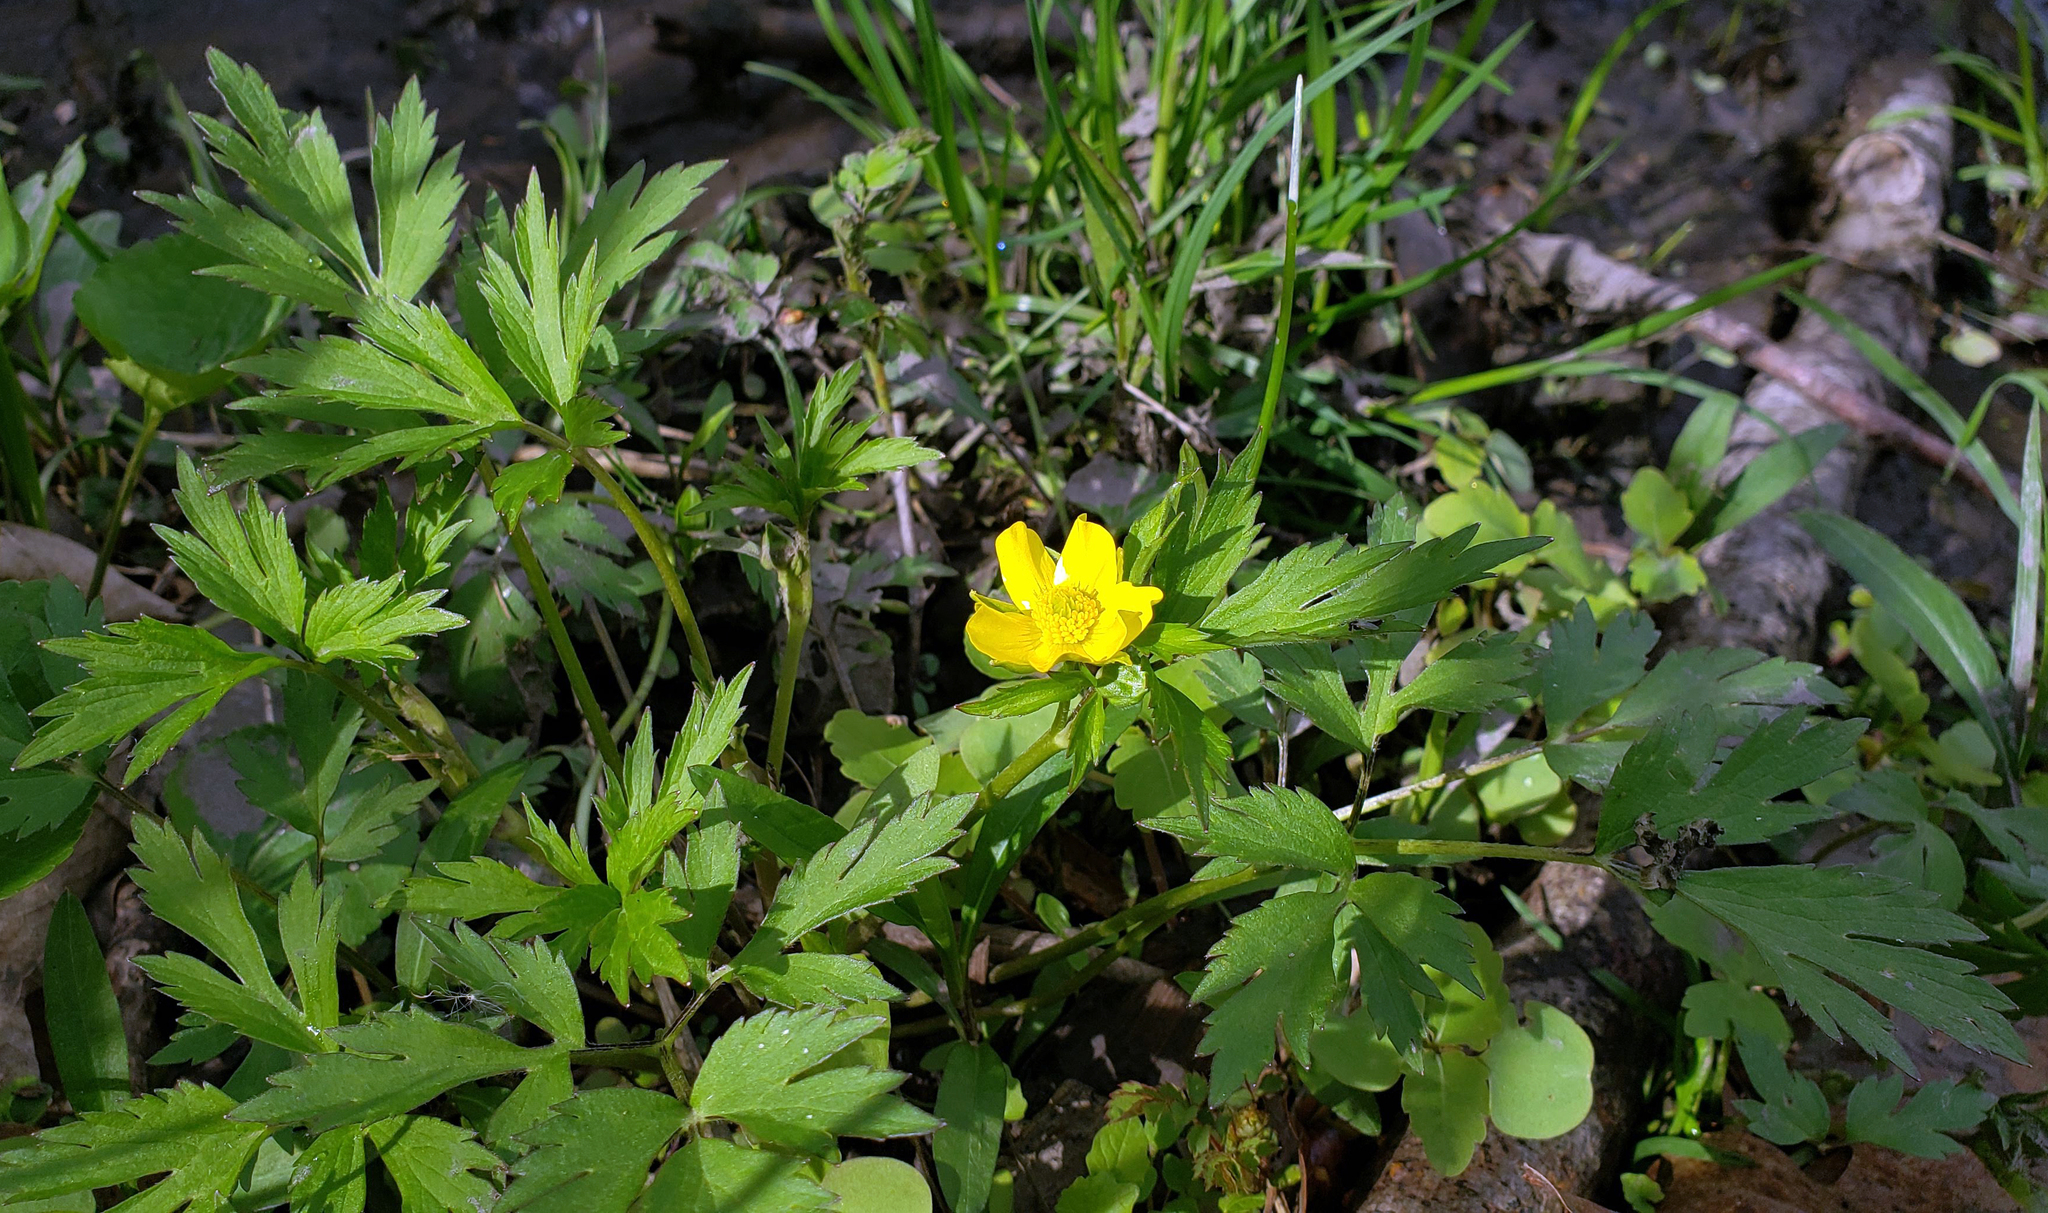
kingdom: Plantae
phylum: Tracheophyta
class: Magnoliopsida
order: Ranunculales
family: Ranunculaceae
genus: Ranunculus
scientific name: Ranunculus hispidus
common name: Bristly buttercup
